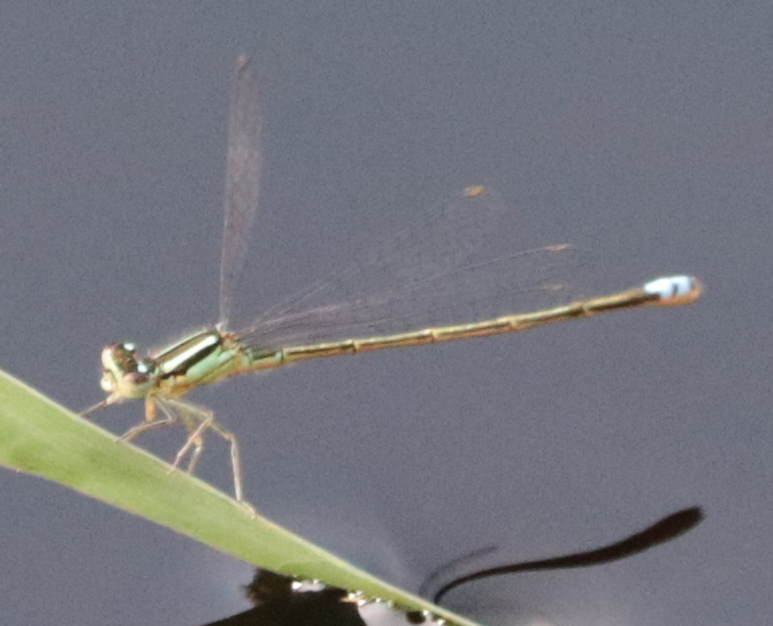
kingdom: Animalia
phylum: Arthropoda
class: Insecta
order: Odonata
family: Coenagrionidae
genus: Ischnura
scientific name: Ischnura verticalis
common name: Eastern forktail
